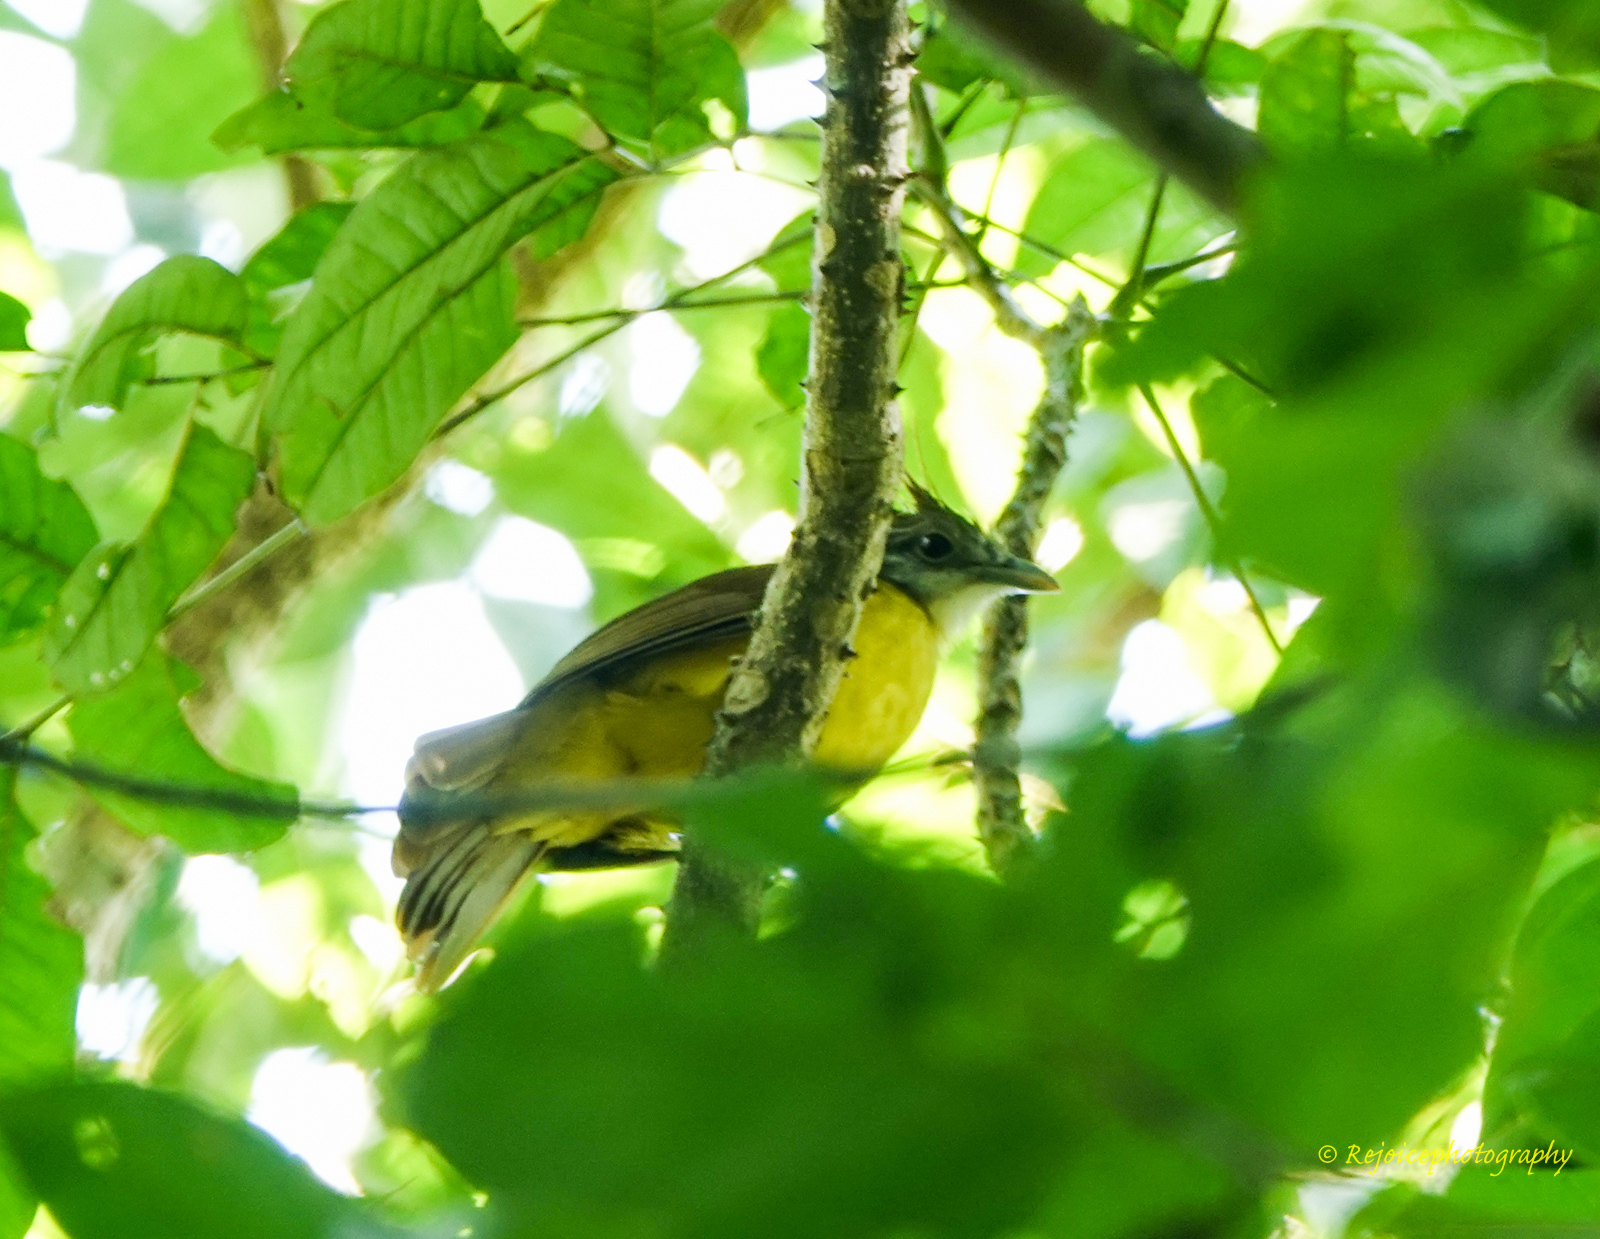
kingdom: Animalia
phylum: Chordata
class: Aves
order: Passeriformes
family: Pycnonotidae
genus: Alophoixus
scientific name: Alophoixus flaveolus
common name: White-throated bulbul
